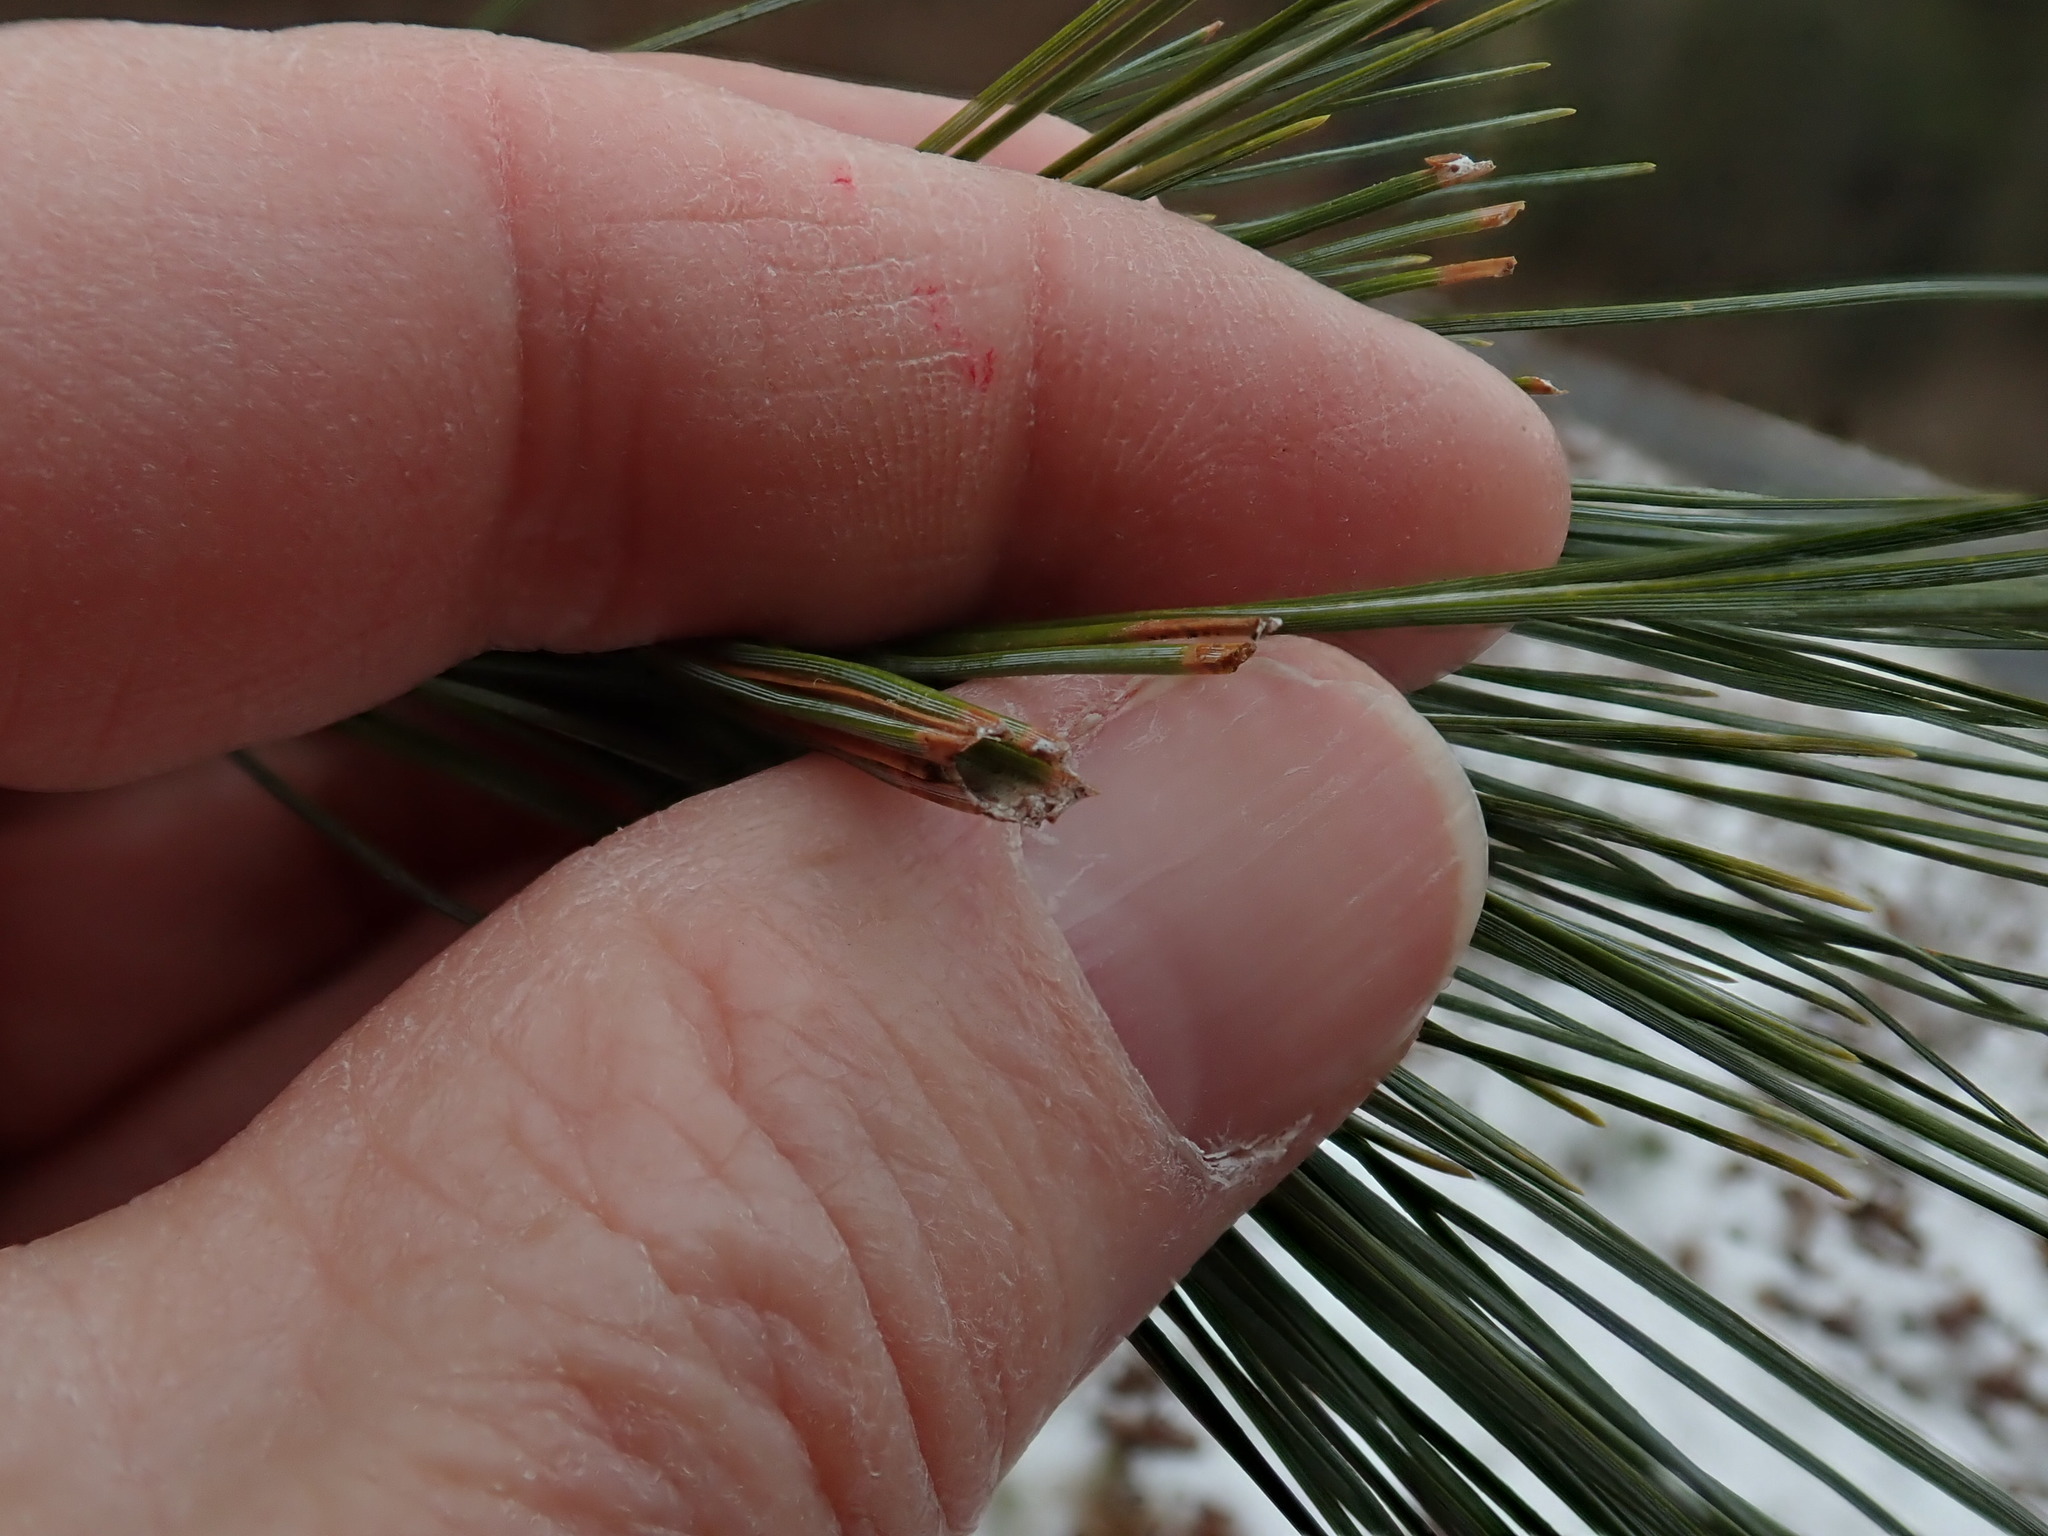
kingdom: Animalia
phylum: Arthropoda
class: Insecta
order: Lepidoptera
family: Tortricidae
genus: Argyrotaenia
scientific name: Argyrotaenia pinatubana
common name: Pine tube moth
